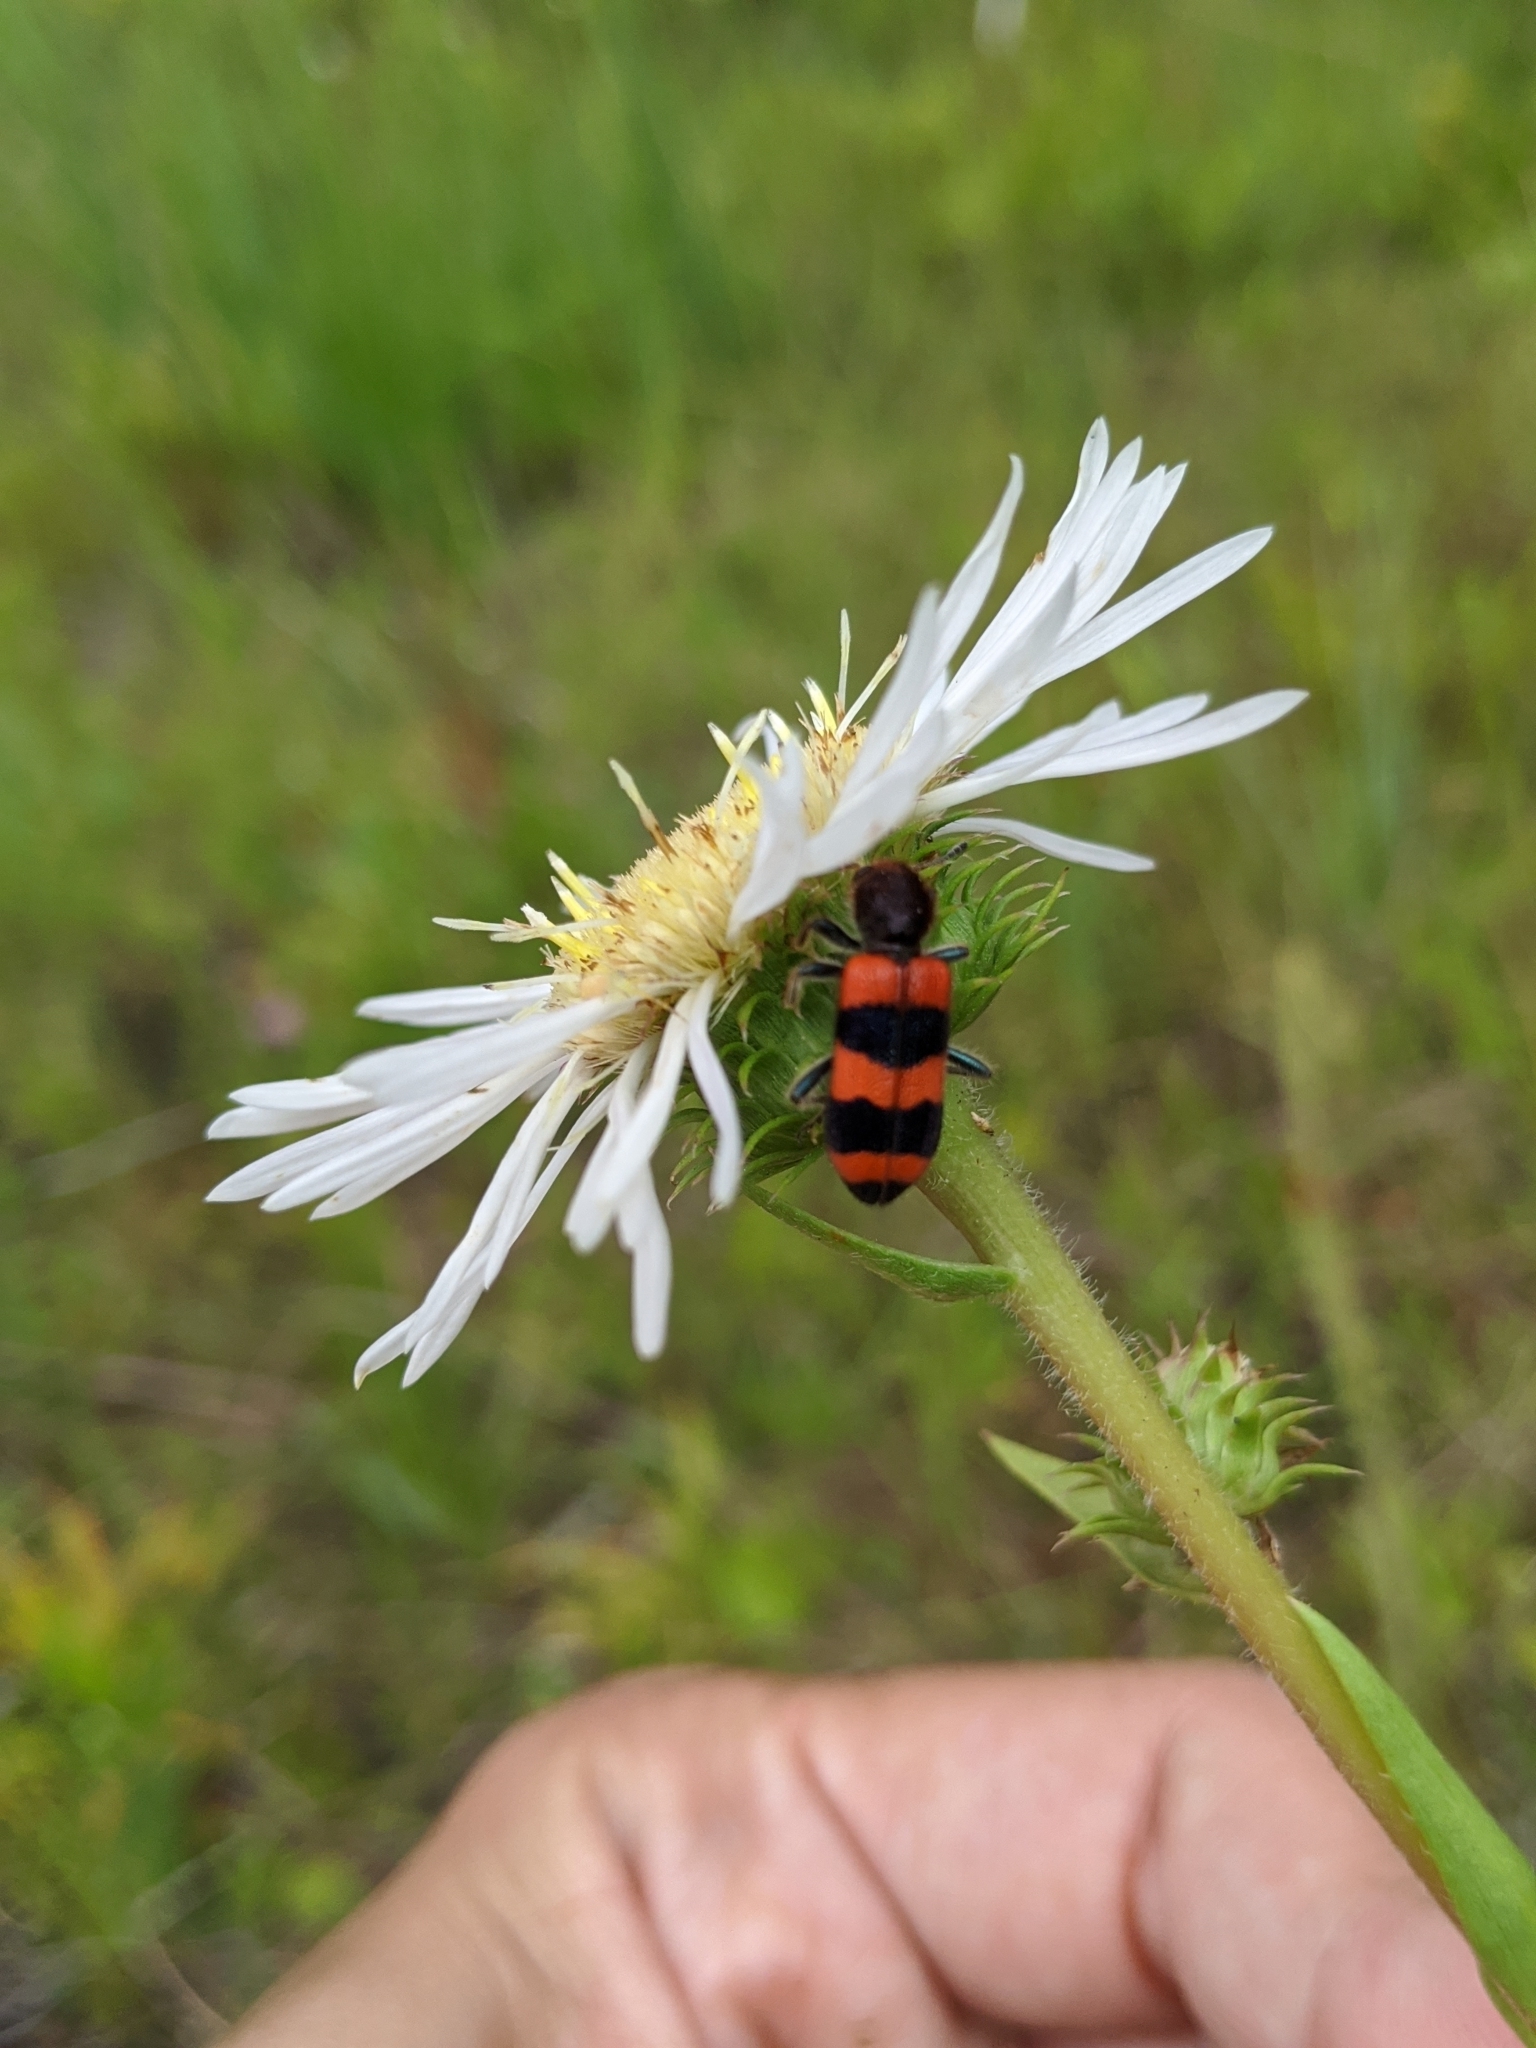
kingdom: Animalia
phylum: Arthropoda
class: Insecta
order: Coleoptera
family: Cleridae
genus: Trichodes
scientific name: Trichodes apivorus
